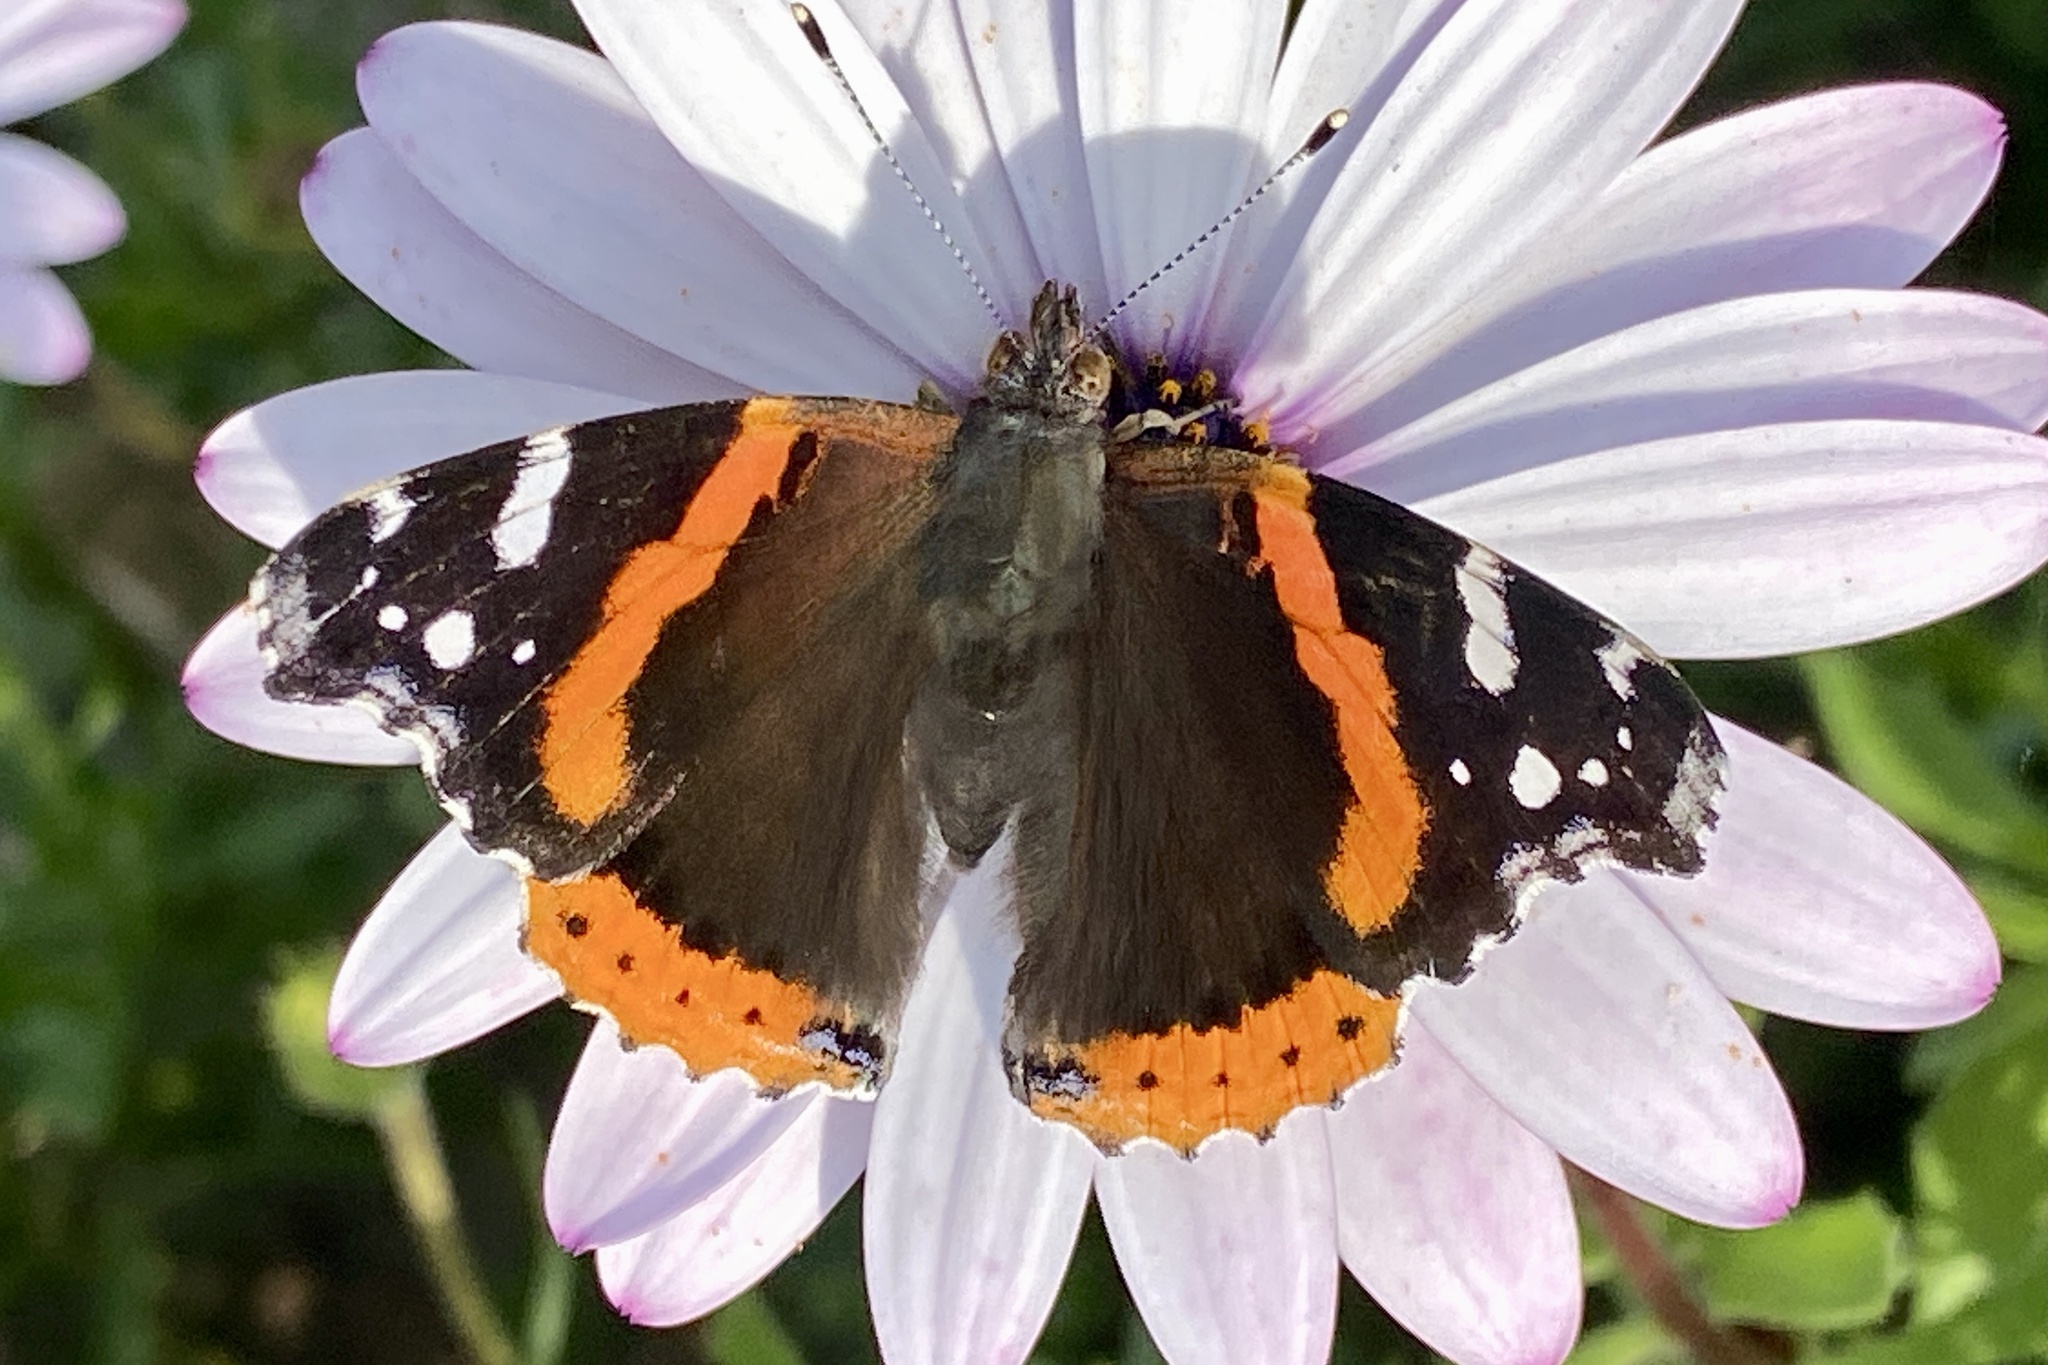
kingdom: Animalia
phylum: Arthropoda
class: Insecta
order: Lepidoptera
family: Nymphalidae
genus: Vanessa
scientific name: Vanessa atalanta
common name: Red admiral
